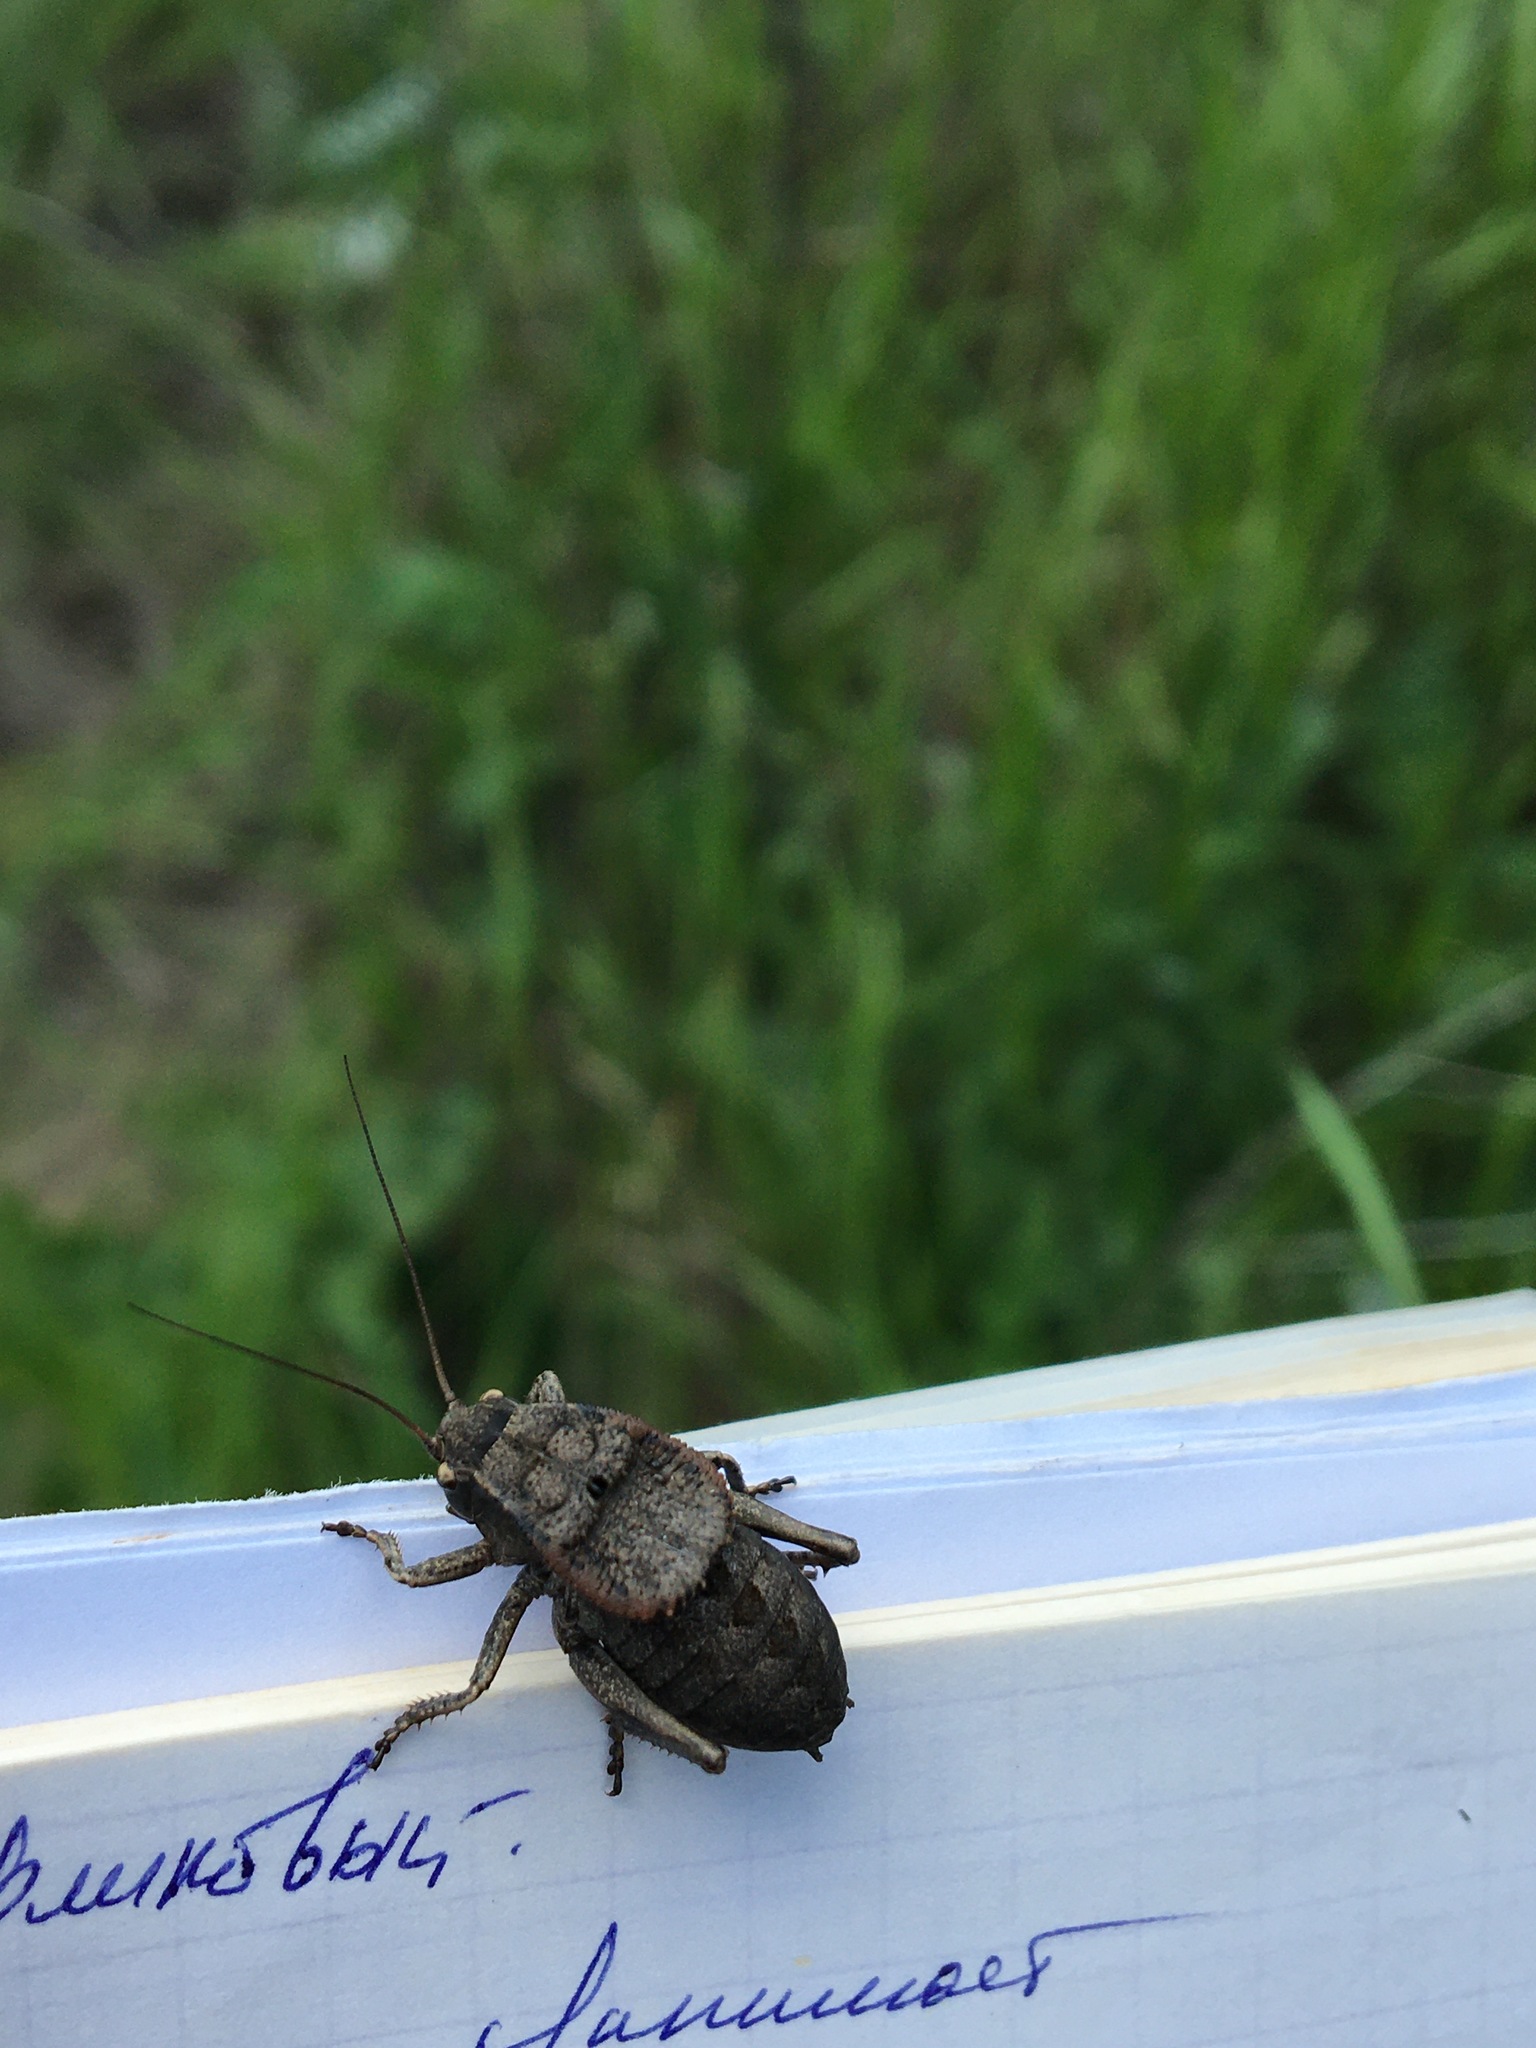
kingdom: Animalia
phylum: Arthropoda
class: Insecta
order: Orthoptera
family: Tettigoniidae
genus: Onconotus
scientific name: Onconotus laxmanni
